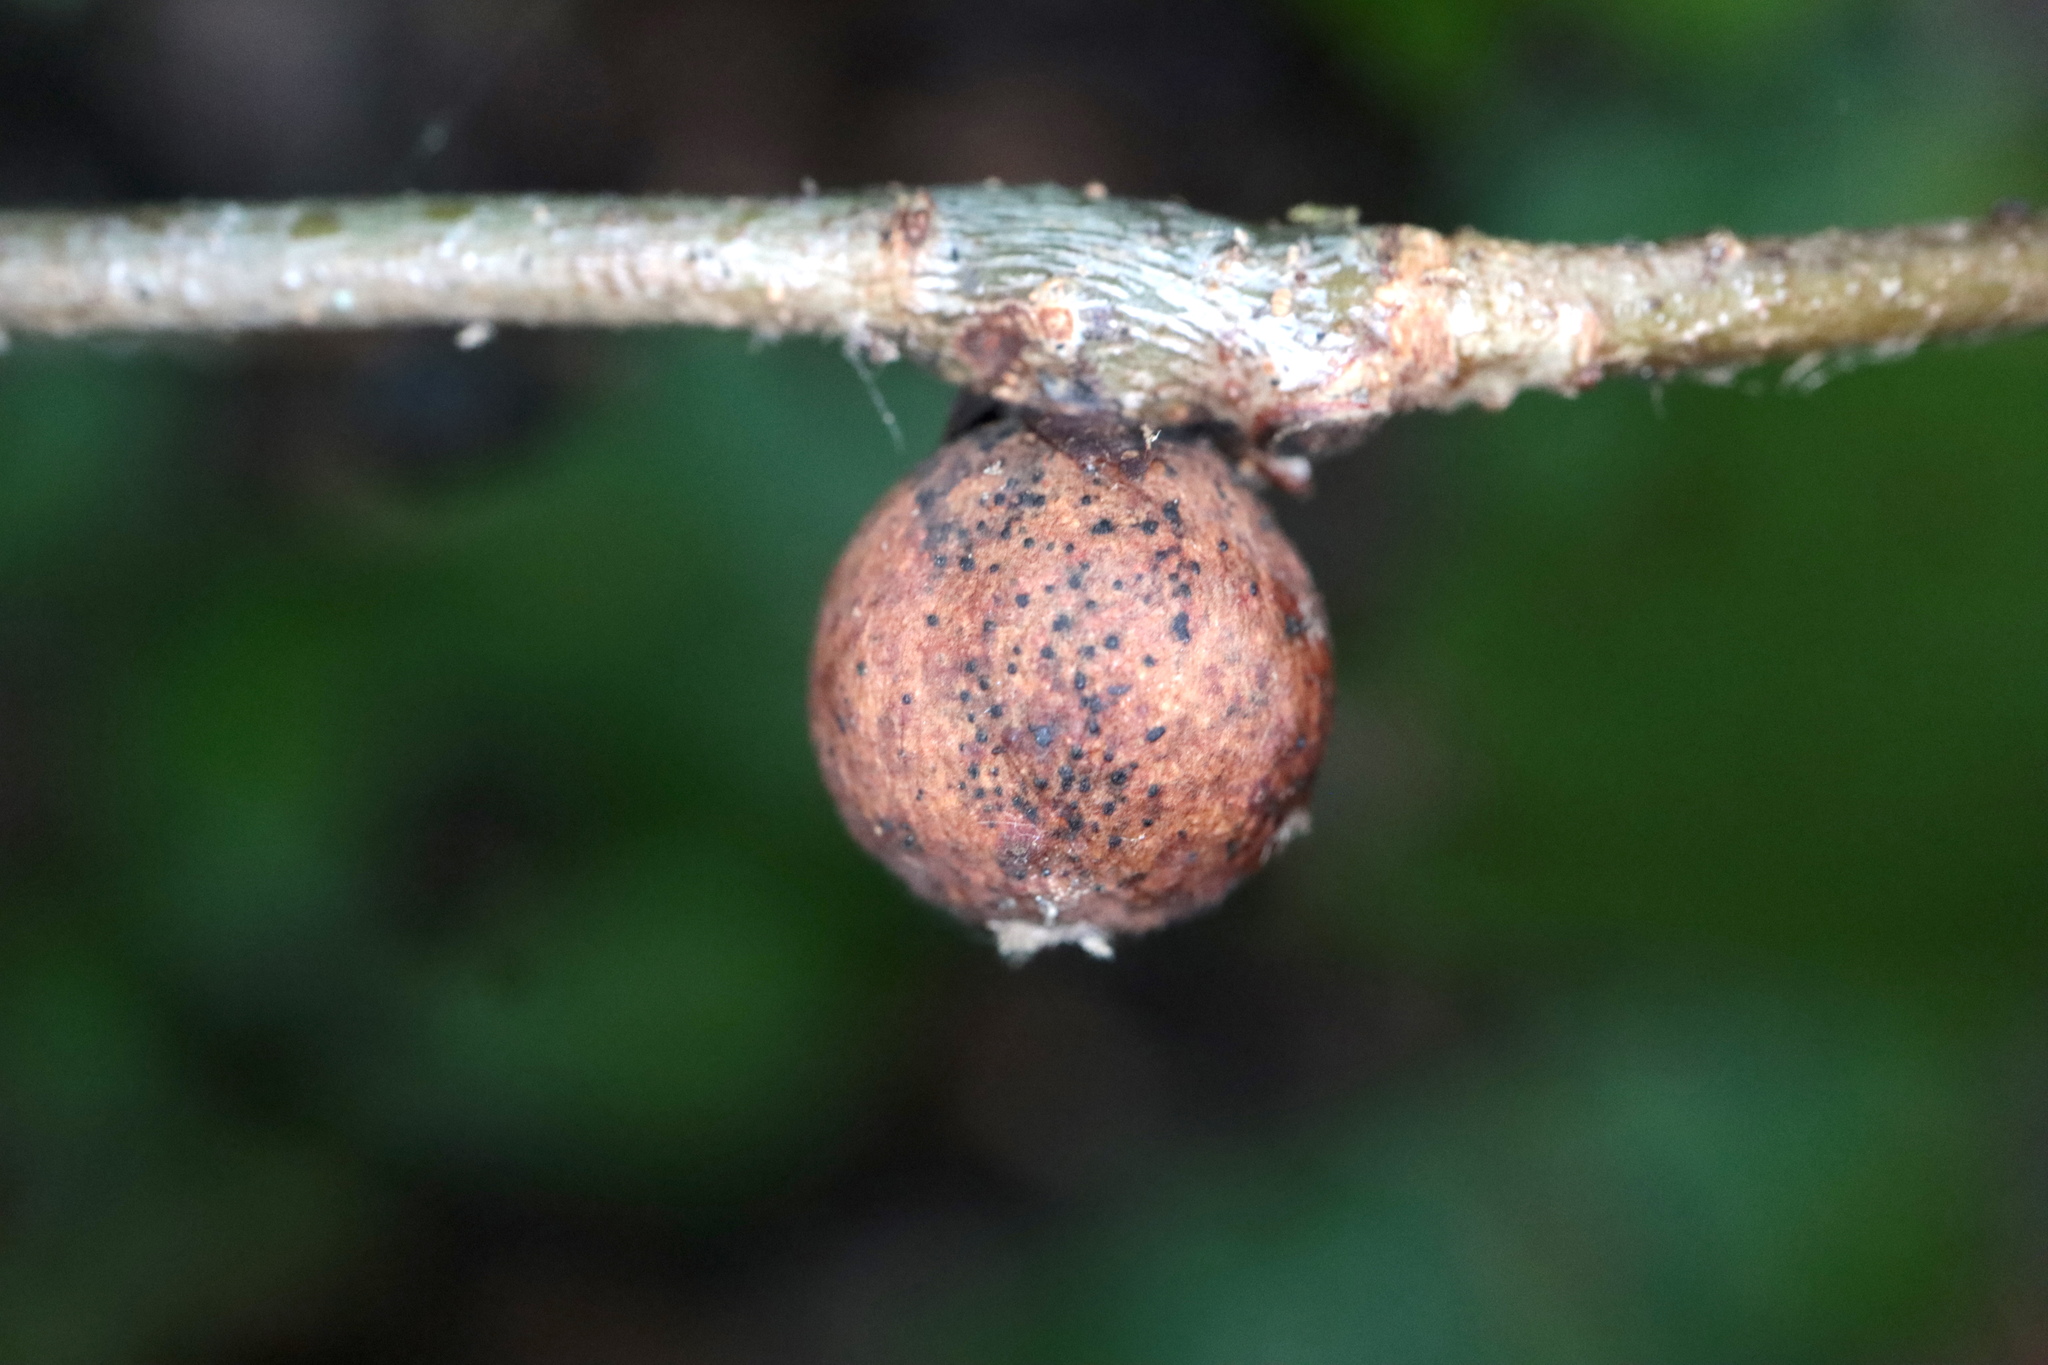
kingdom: Animalia
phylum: Arthropoda
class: Insecta
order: Hymenoptera
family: Cynipidae
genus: Kokkocynips
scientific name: Kokkocynips imbricariae
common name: Banded bullet gall wasp
